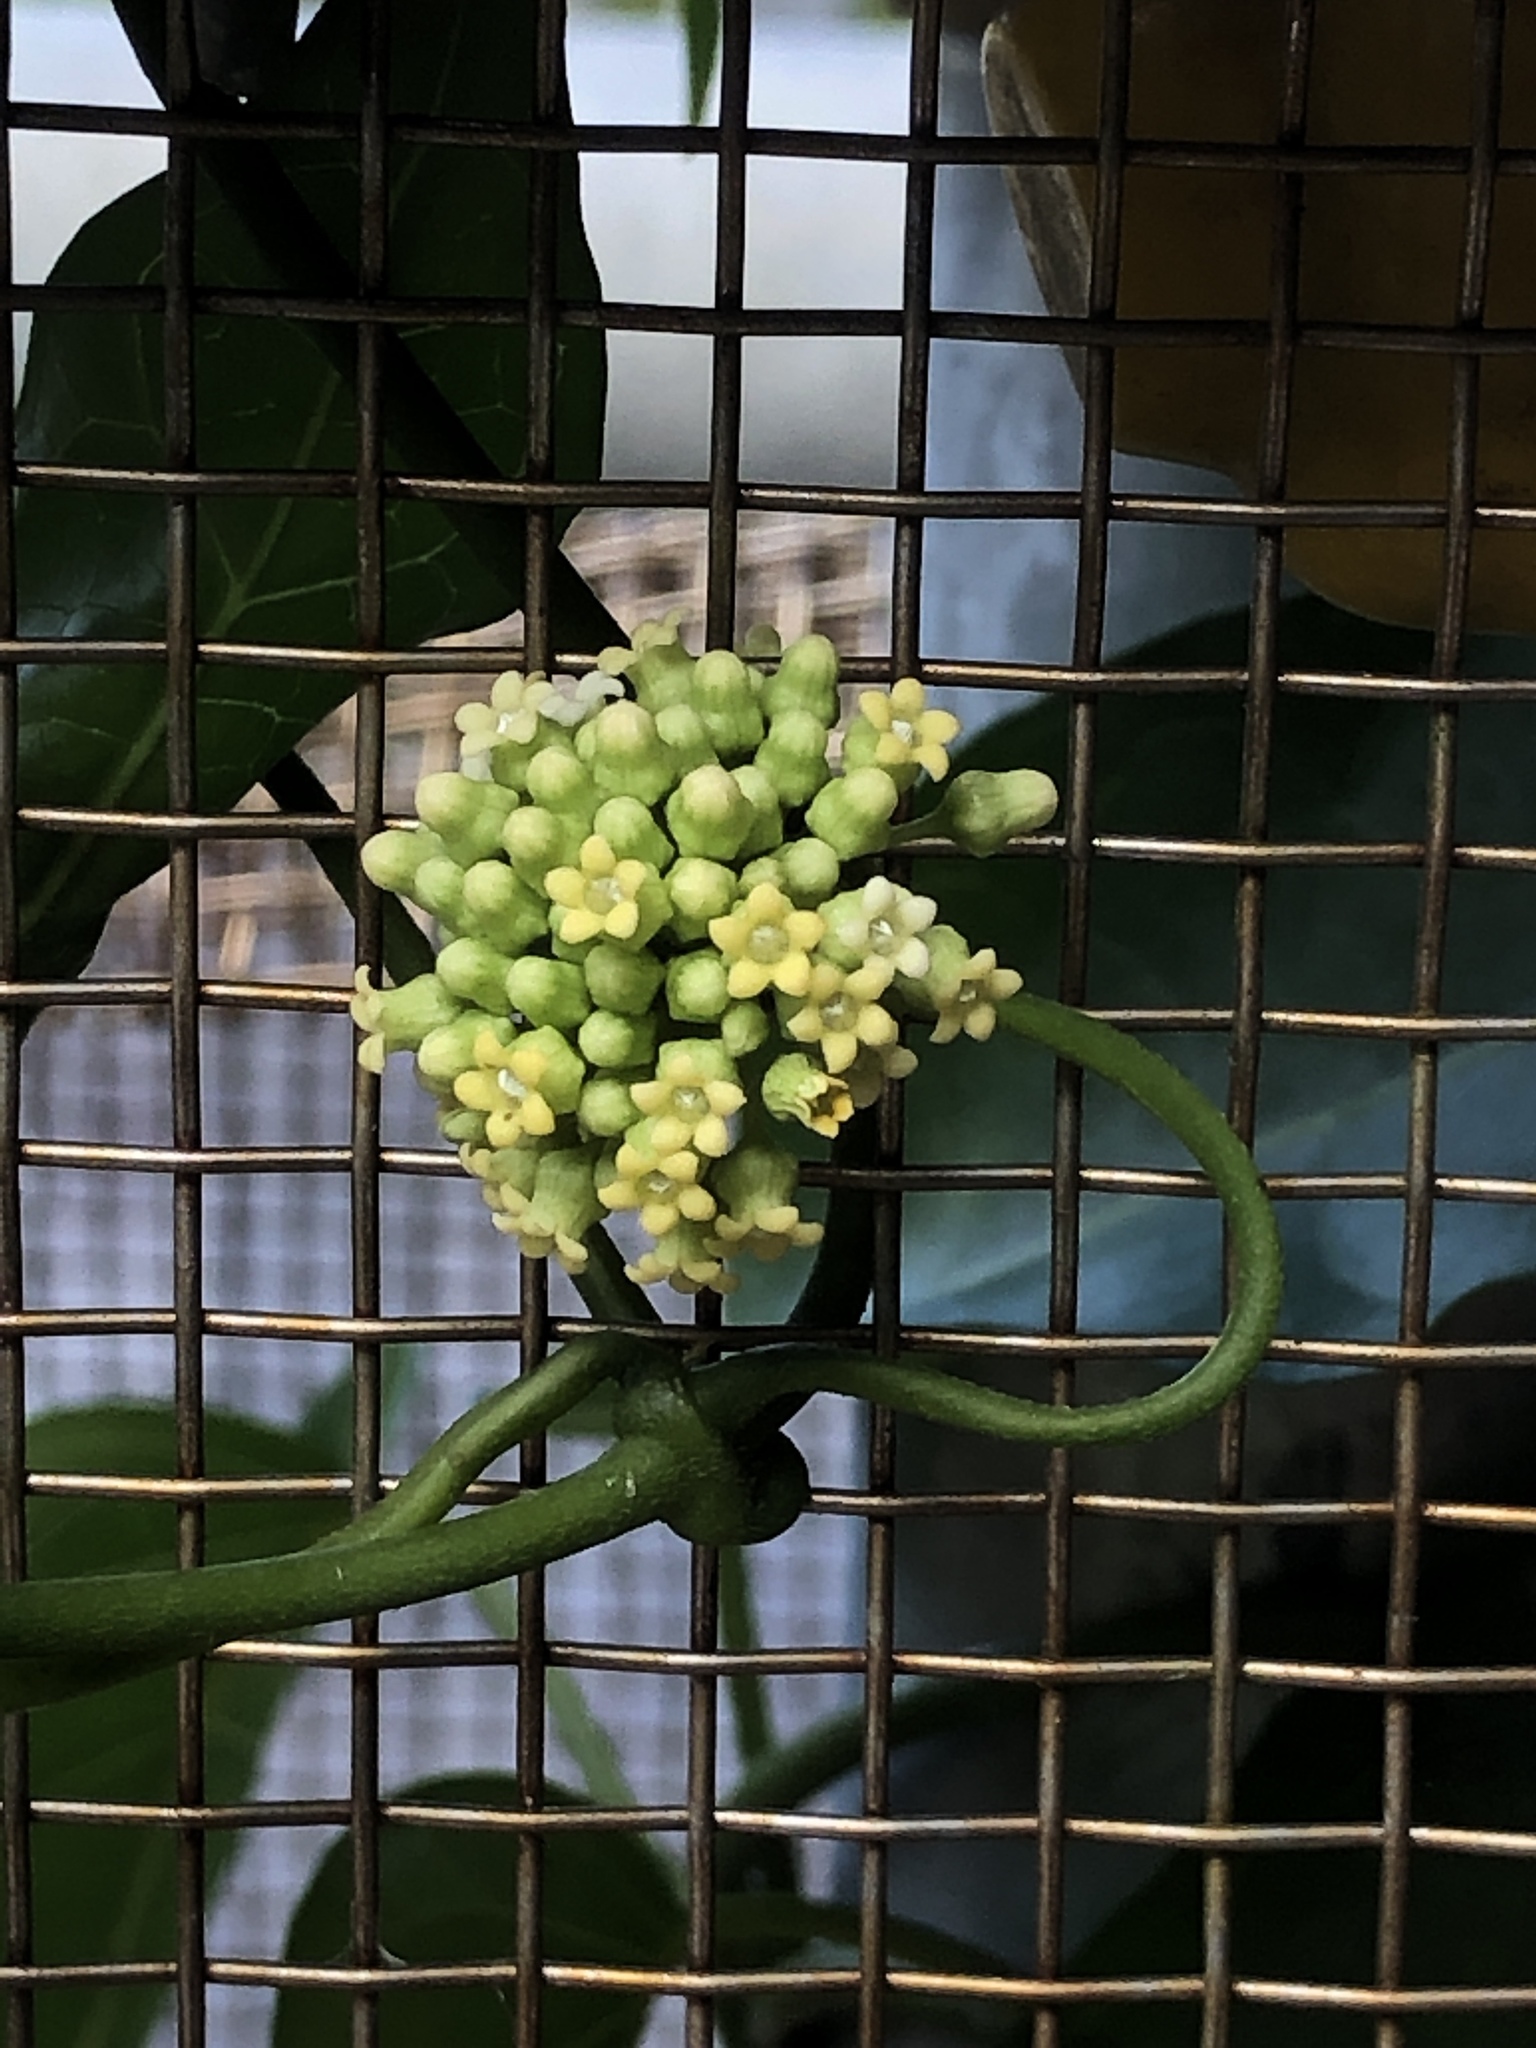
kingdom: Plantae
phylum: Tracheophyta
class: Magnoliopsida
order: Gentianales
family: Apocynaceae
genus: Marsdenia
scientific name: Marsdenia tinctoria
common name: Climbing-indigo
